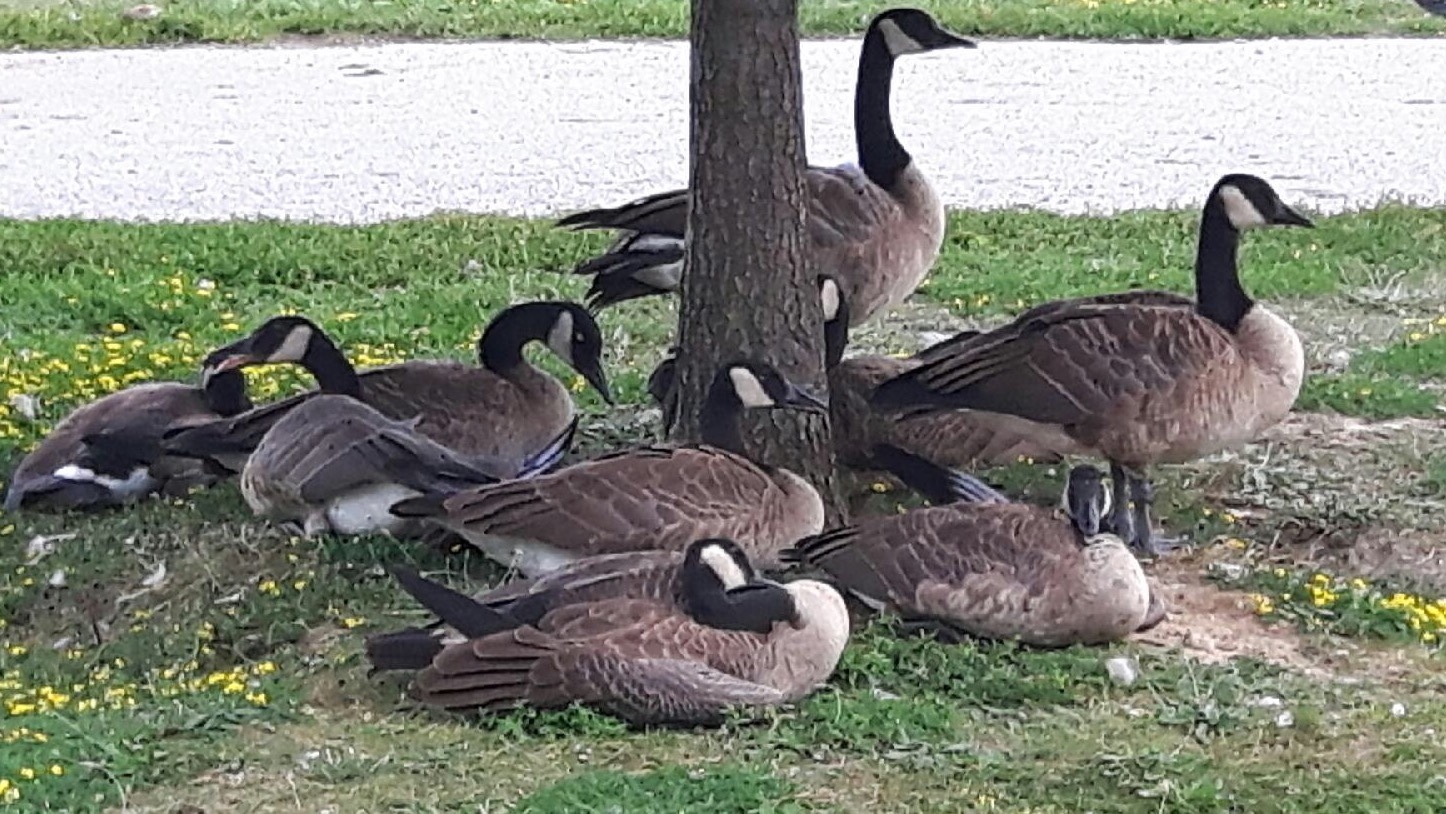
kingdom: Animalia
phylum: Chordata
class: Aves
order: Anseriformes
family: Anatidae
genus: Branta
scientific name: Branta canadensis
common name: Canada goose
